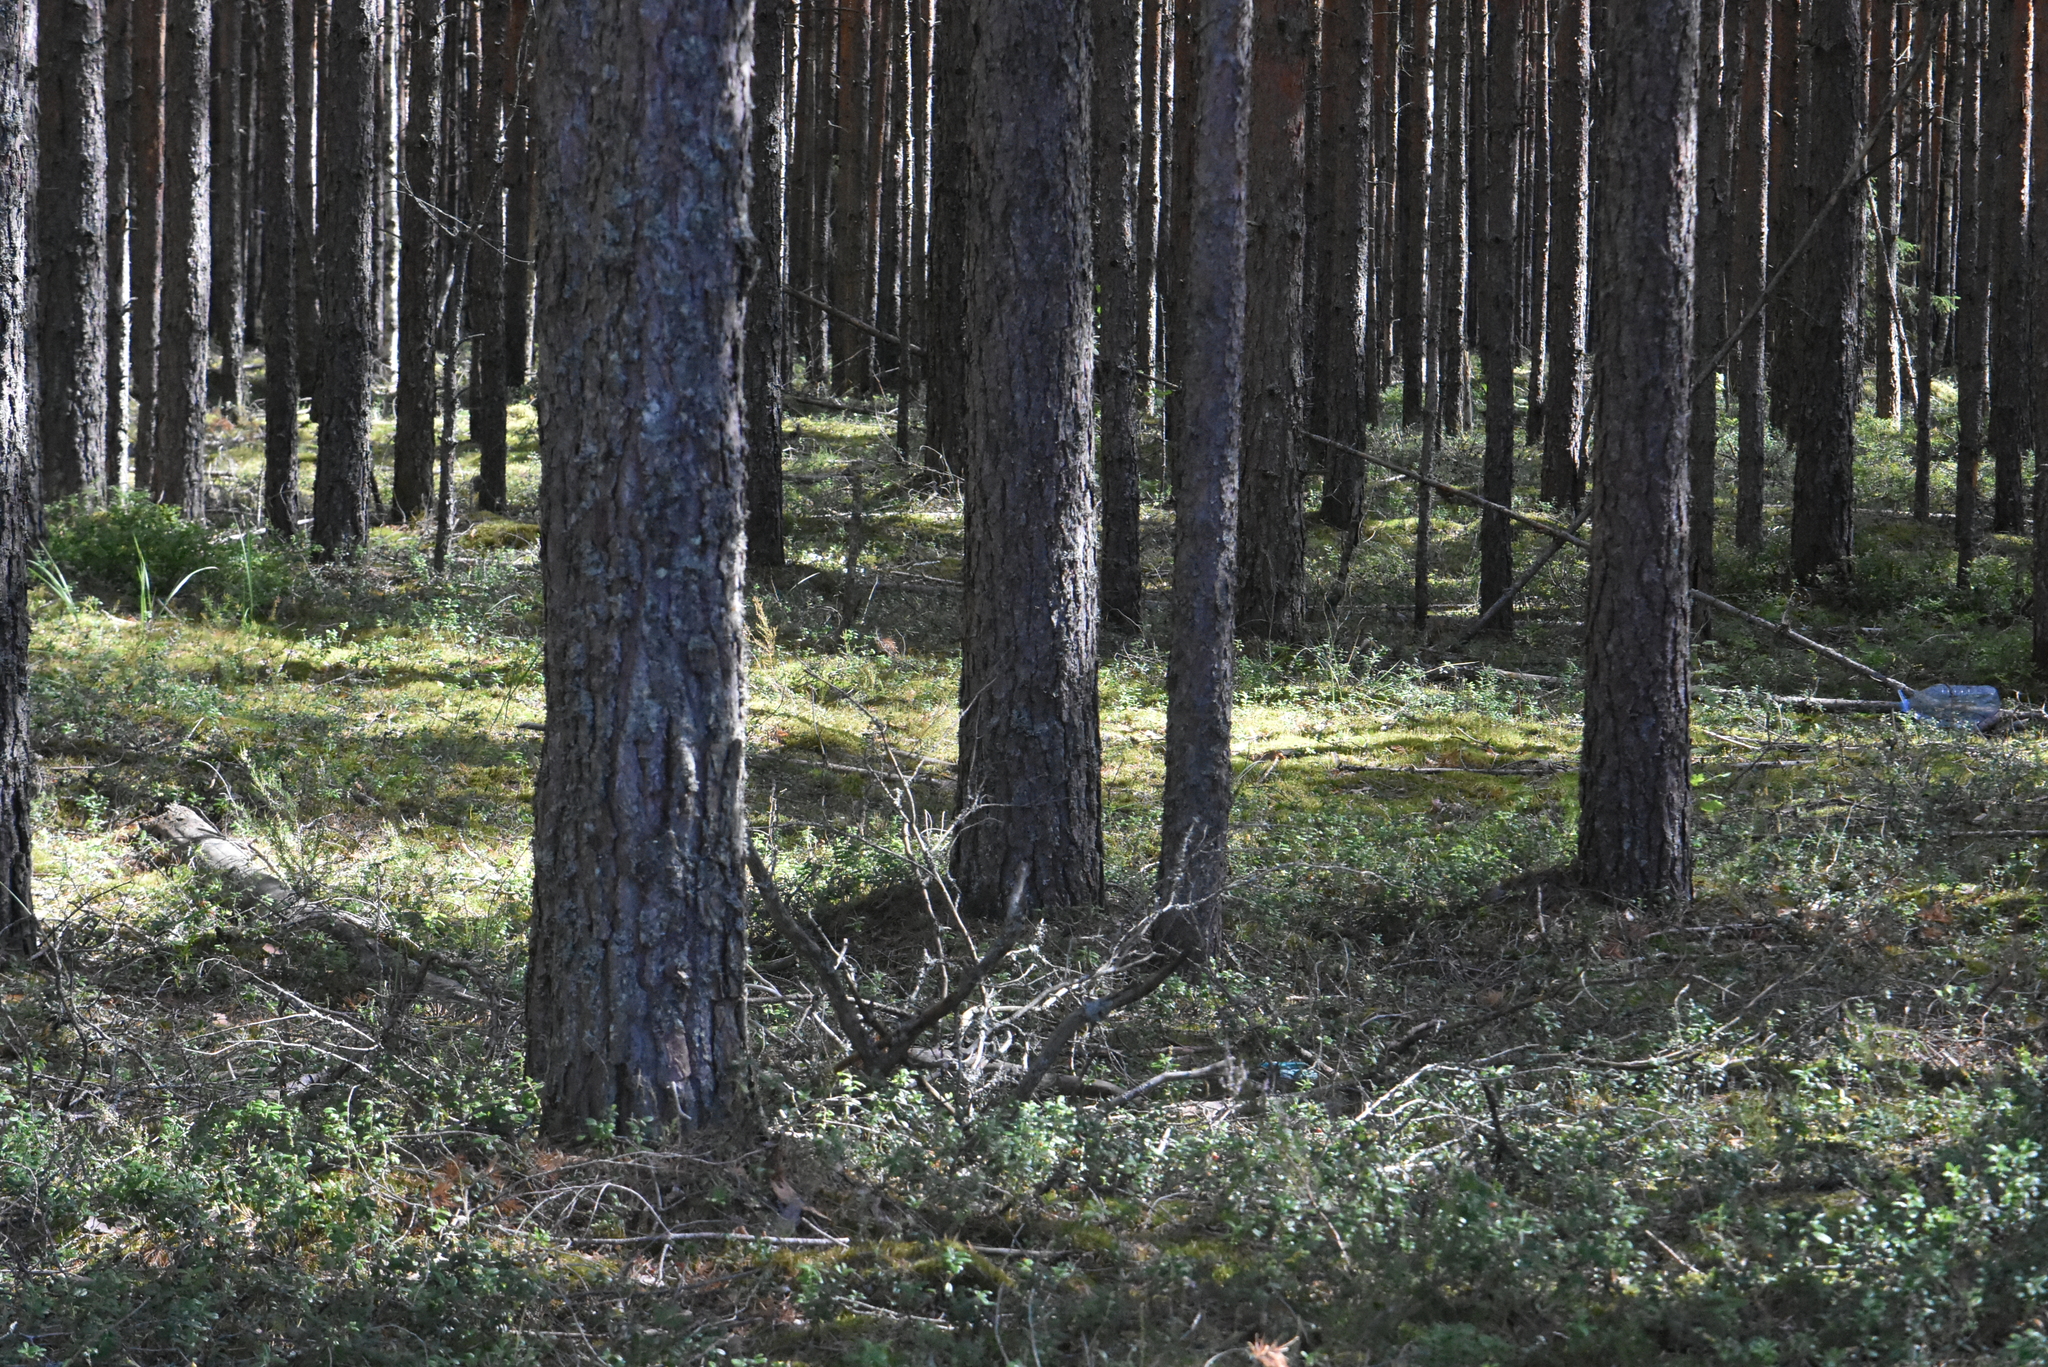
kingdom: Plantae
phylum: Tracheophyta
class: Pinopsida
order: Pinales
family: Pinaceae
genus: Pinus
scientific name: Pinus sylvestris
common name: Scots pine
